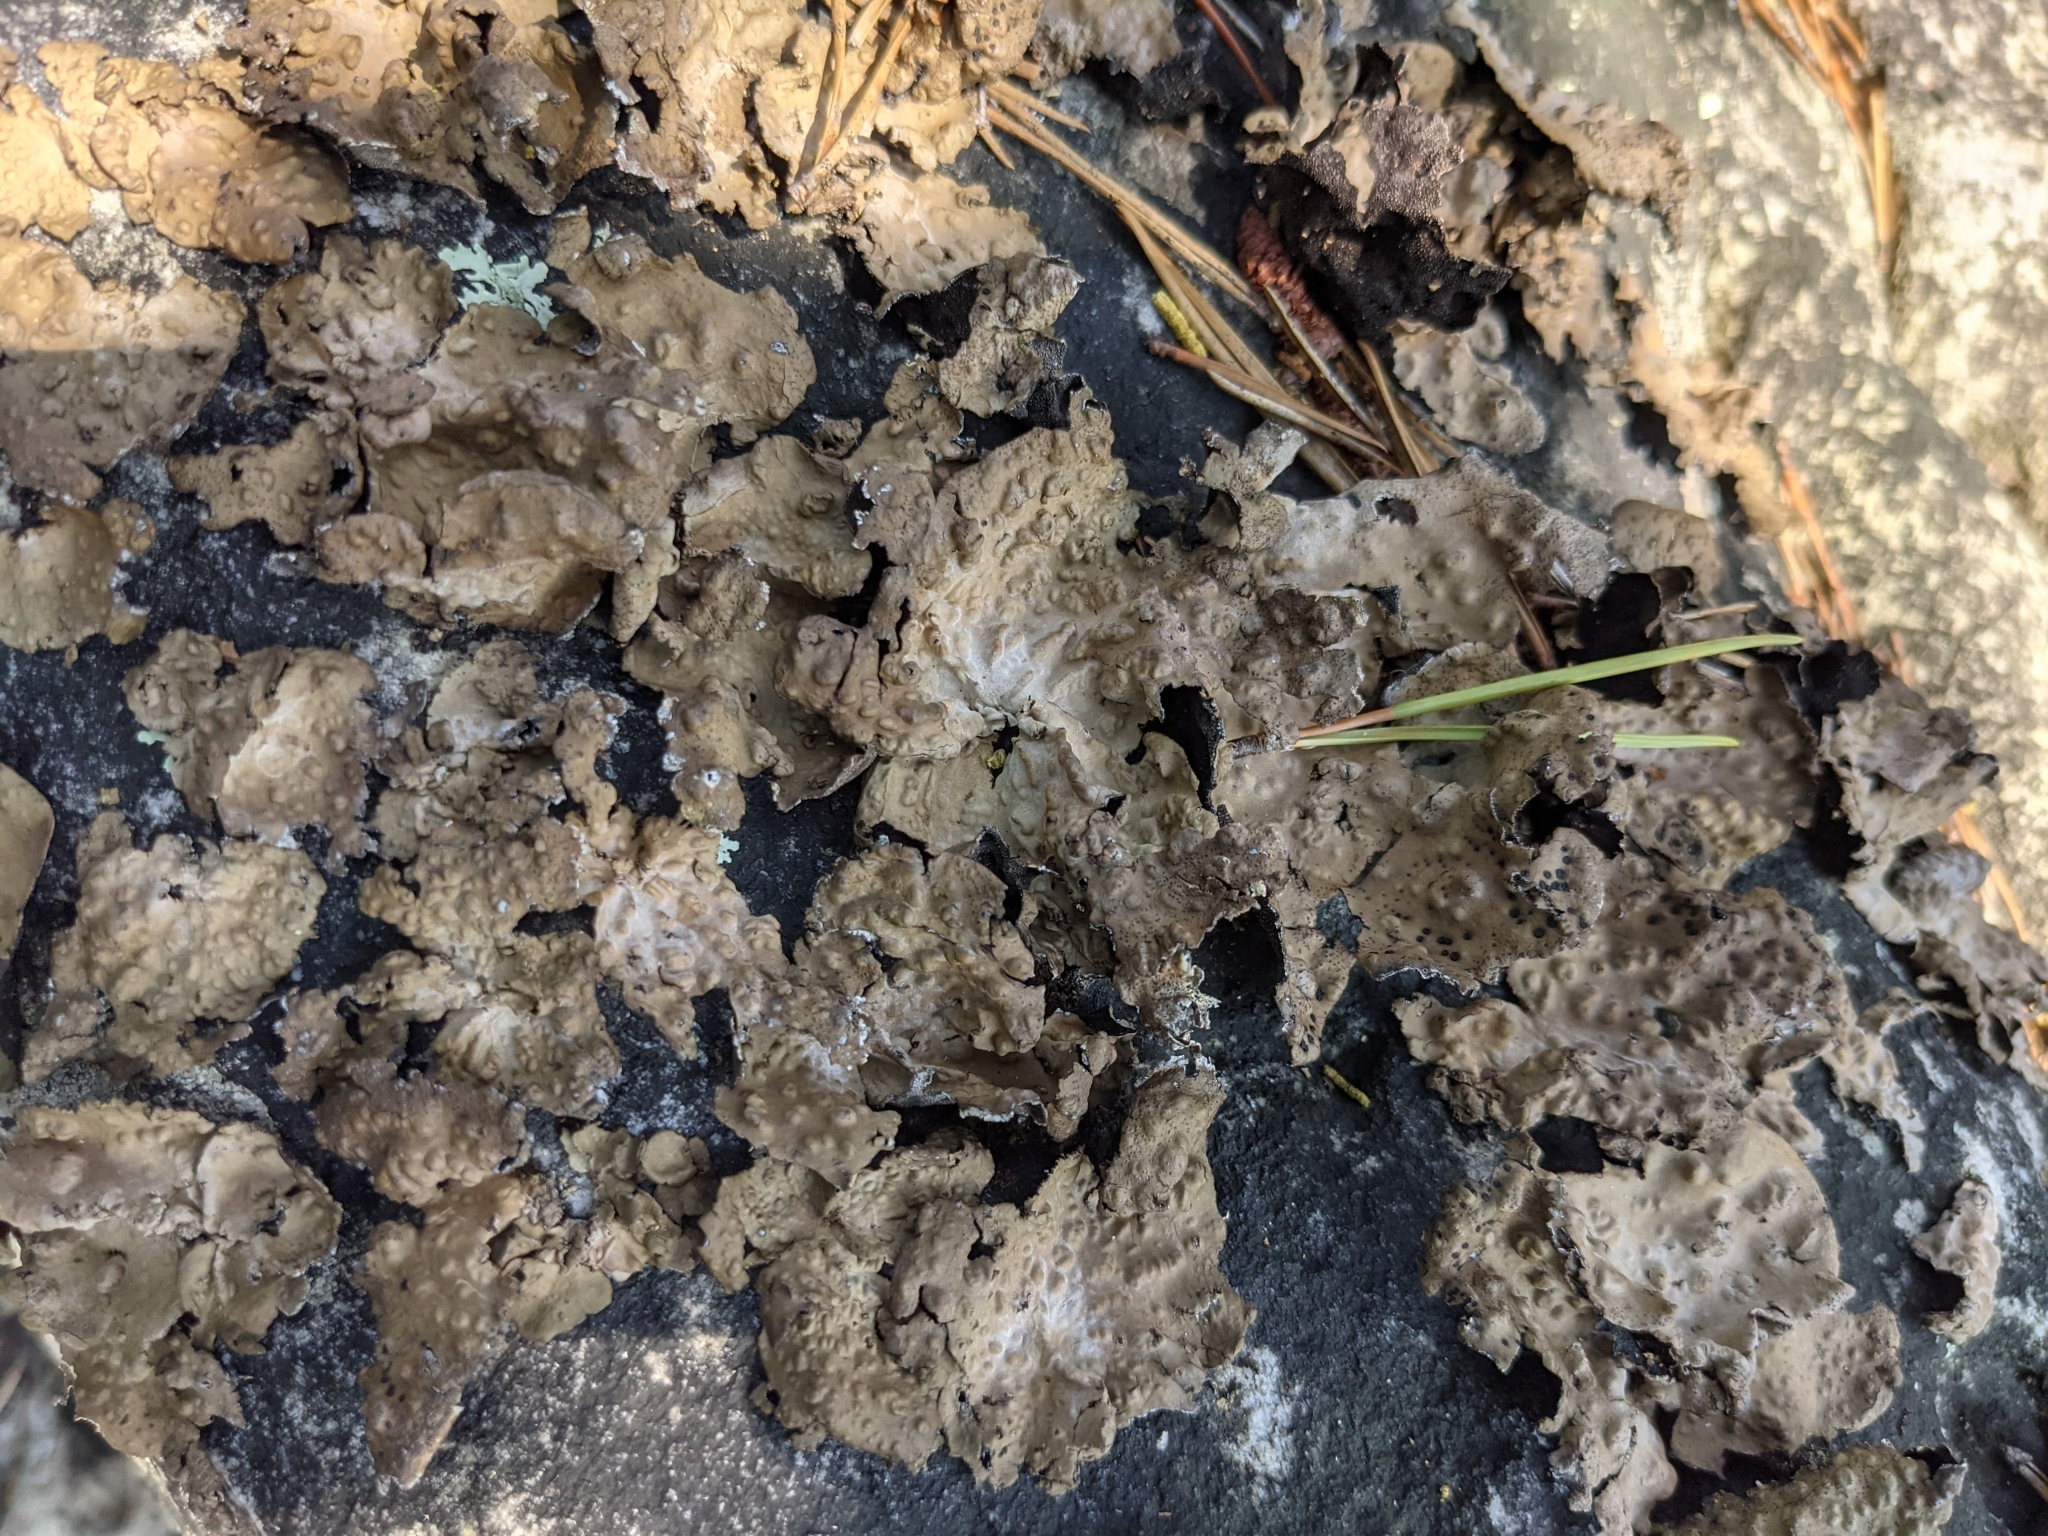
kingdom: Fungi
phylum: Ascomycota
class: Lecanoromycetes
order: Umbilicariales
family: Umbilicariaceae
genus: Umbilicaria
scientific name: Umbilicaria muhlenbergii
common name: Lesser rocktripe
